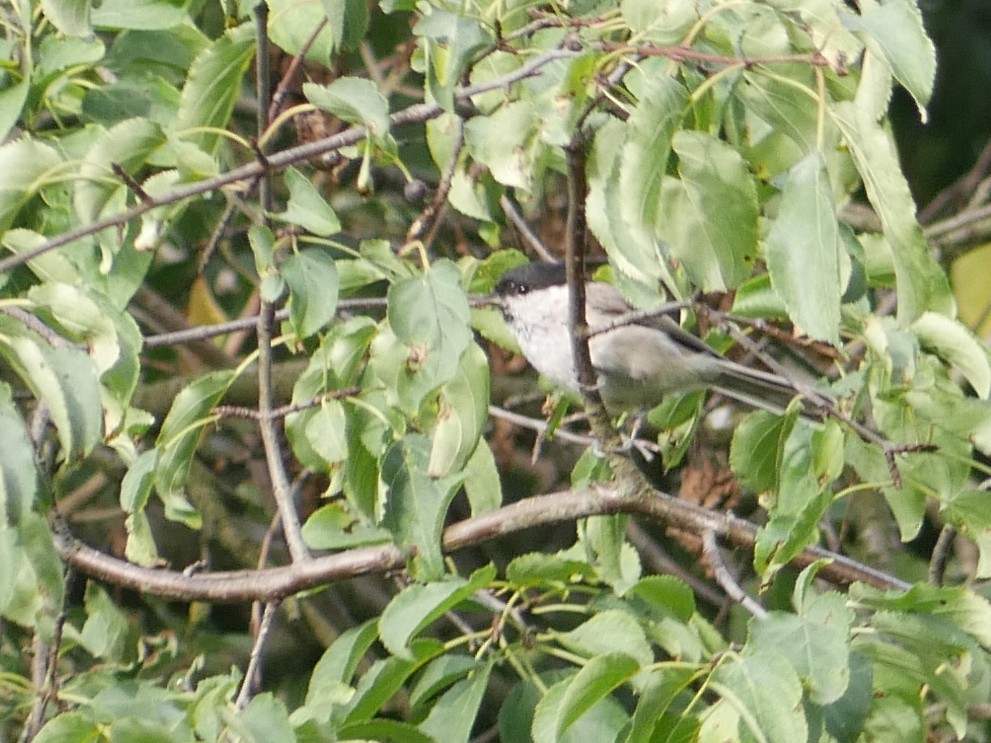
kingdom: Animalia
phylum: Chordata
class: Aves
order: Passeriformes
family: Paridae
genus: Poecile
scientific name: Poecile palustris
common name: Marsh tit
